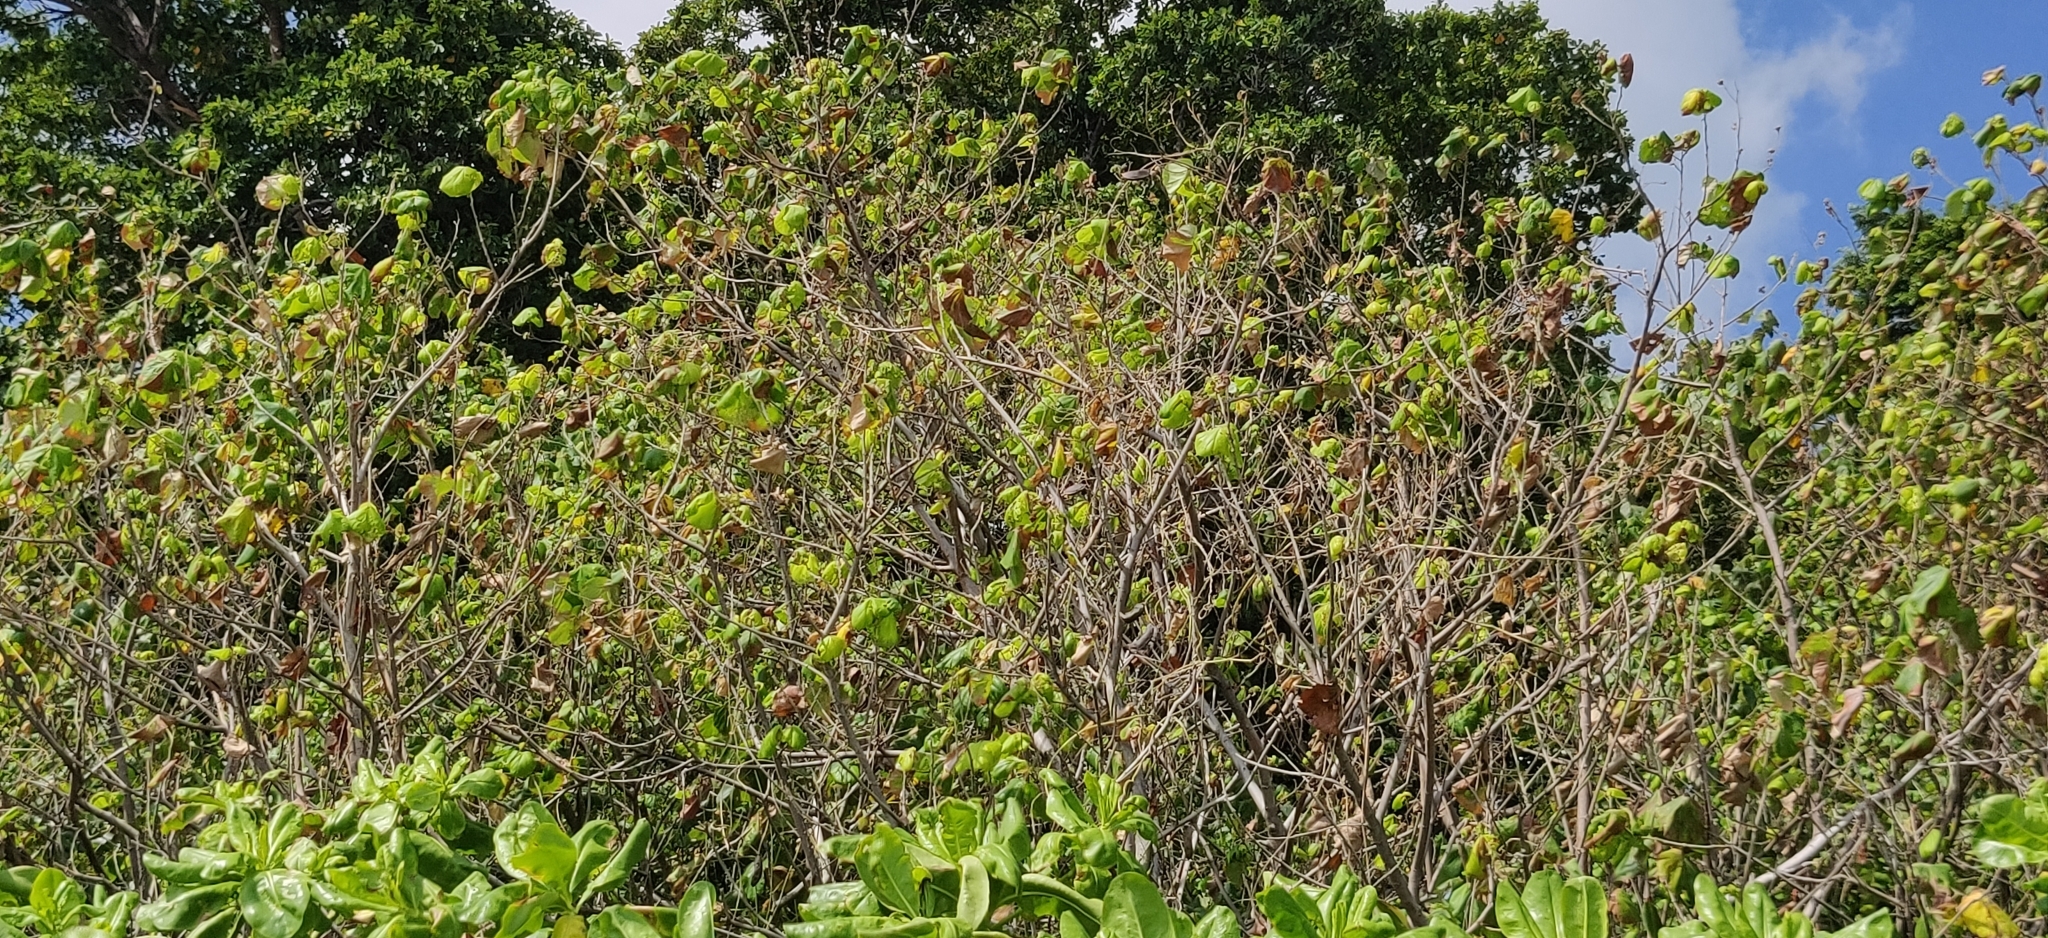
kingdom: Plantae
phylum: Tracheophyta
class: Magnoliopsida
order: Malvales
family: Malvaceae
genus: Talipariti
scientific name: Talipariti tiliaceum
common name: Sea hibiscus
